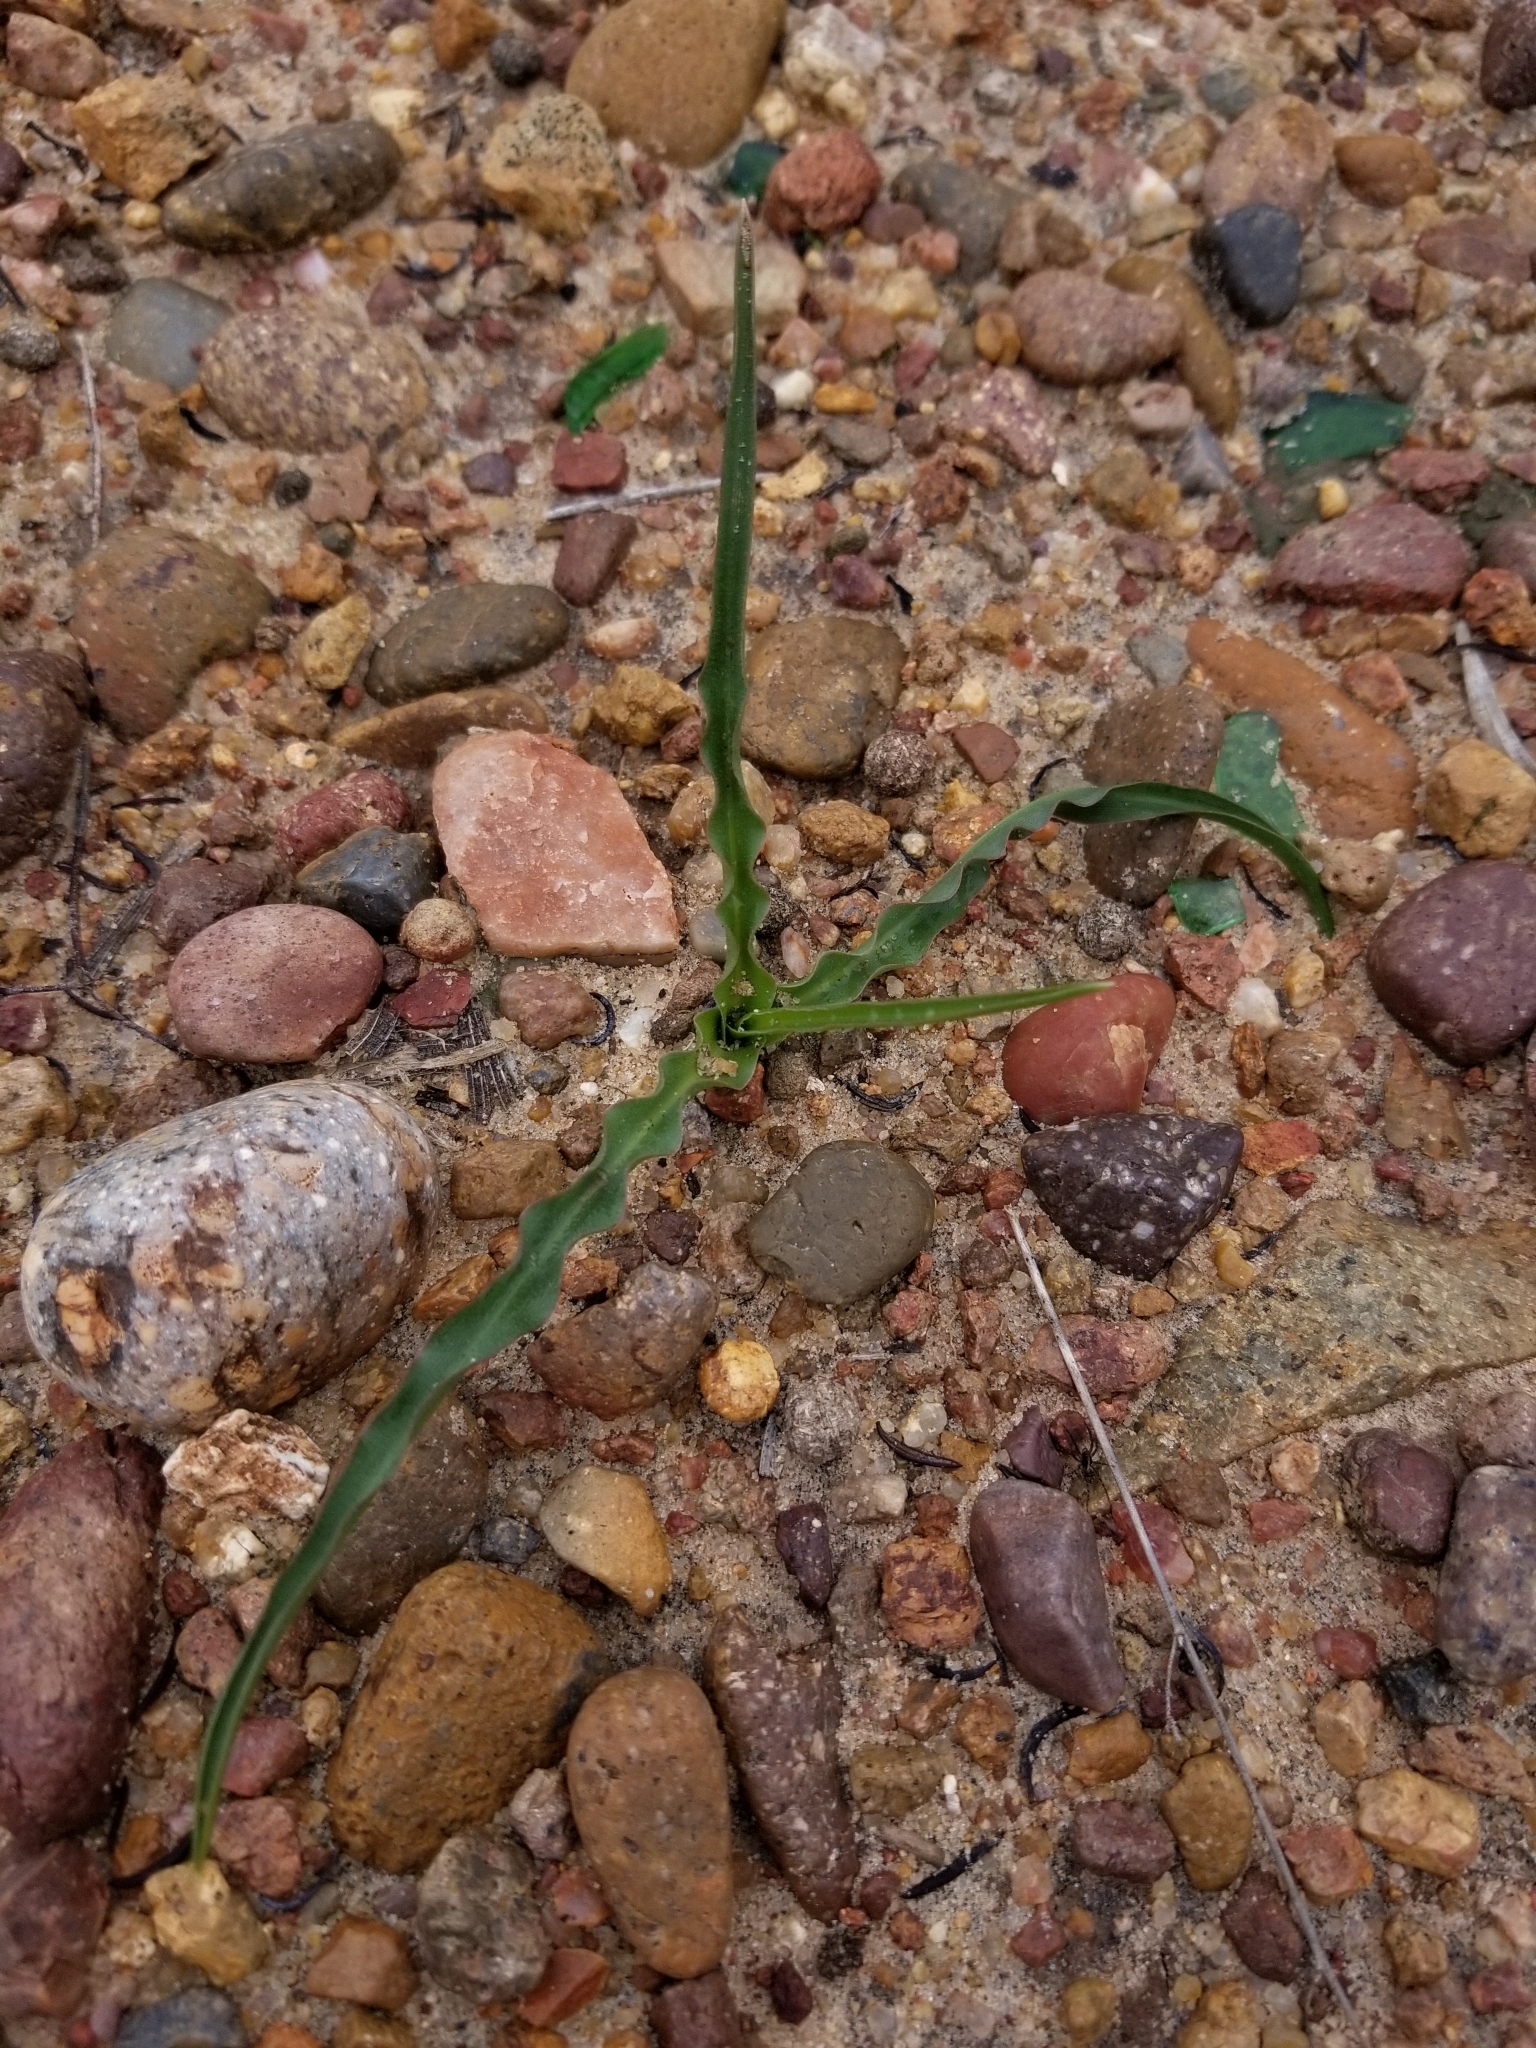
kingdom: Plantae
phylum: Tracheophyta
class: Liliopsida
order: Asparagales
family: Asparagaceae
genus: Hooveria
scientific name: Hooveria parviflora
